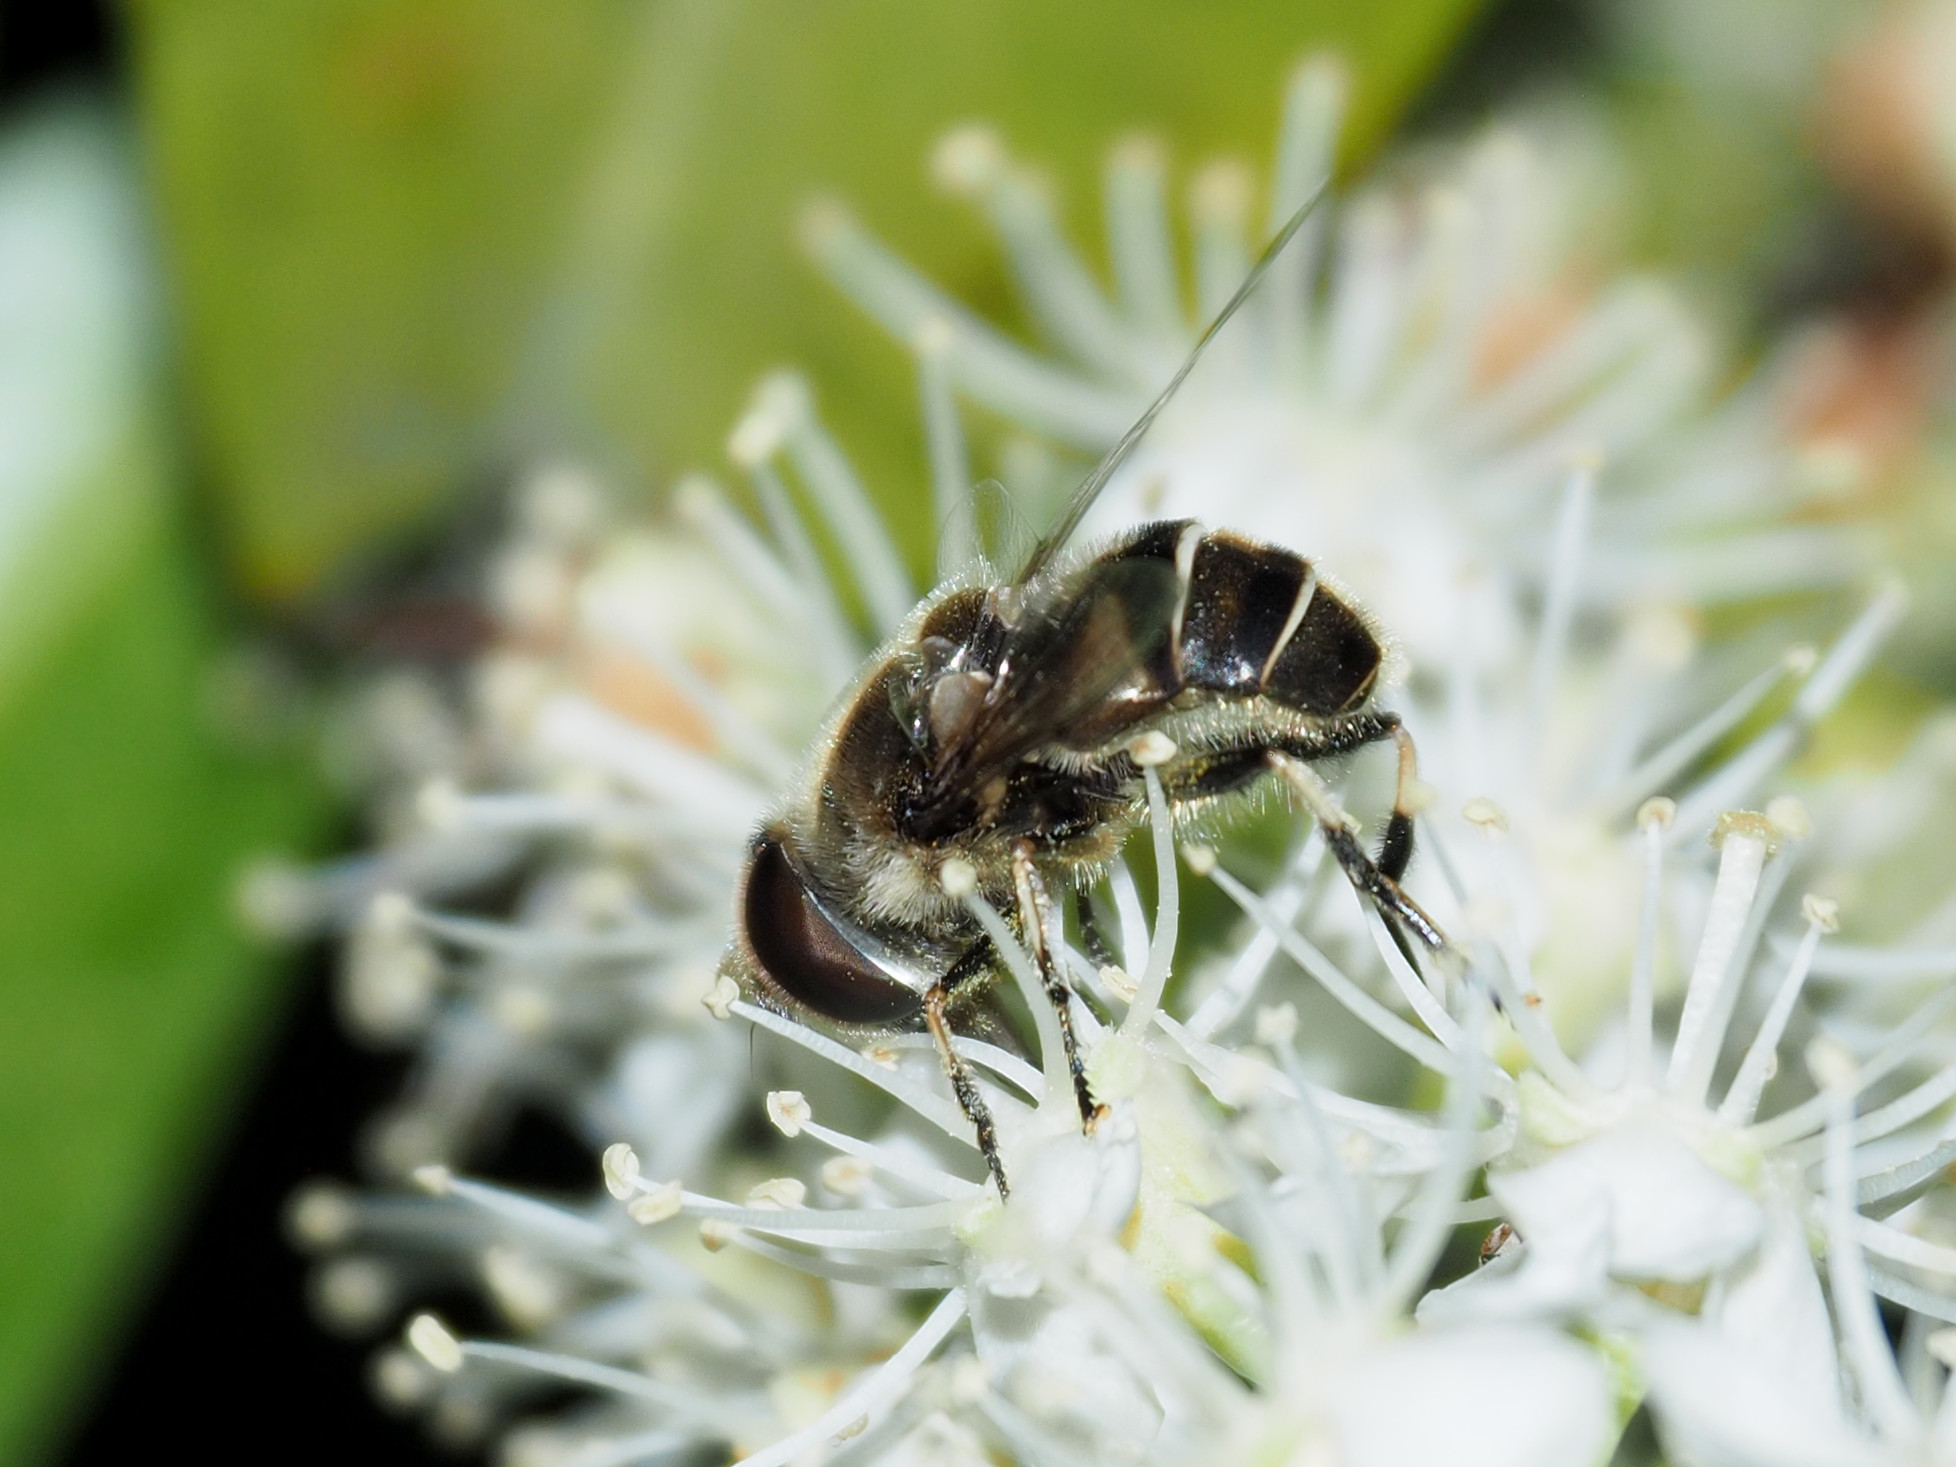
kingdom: Animalia
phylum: Arthropoda
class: Insecta
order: Diptera
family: Syrphidae
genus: Eristalis
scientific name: Eristalis dimidiata
